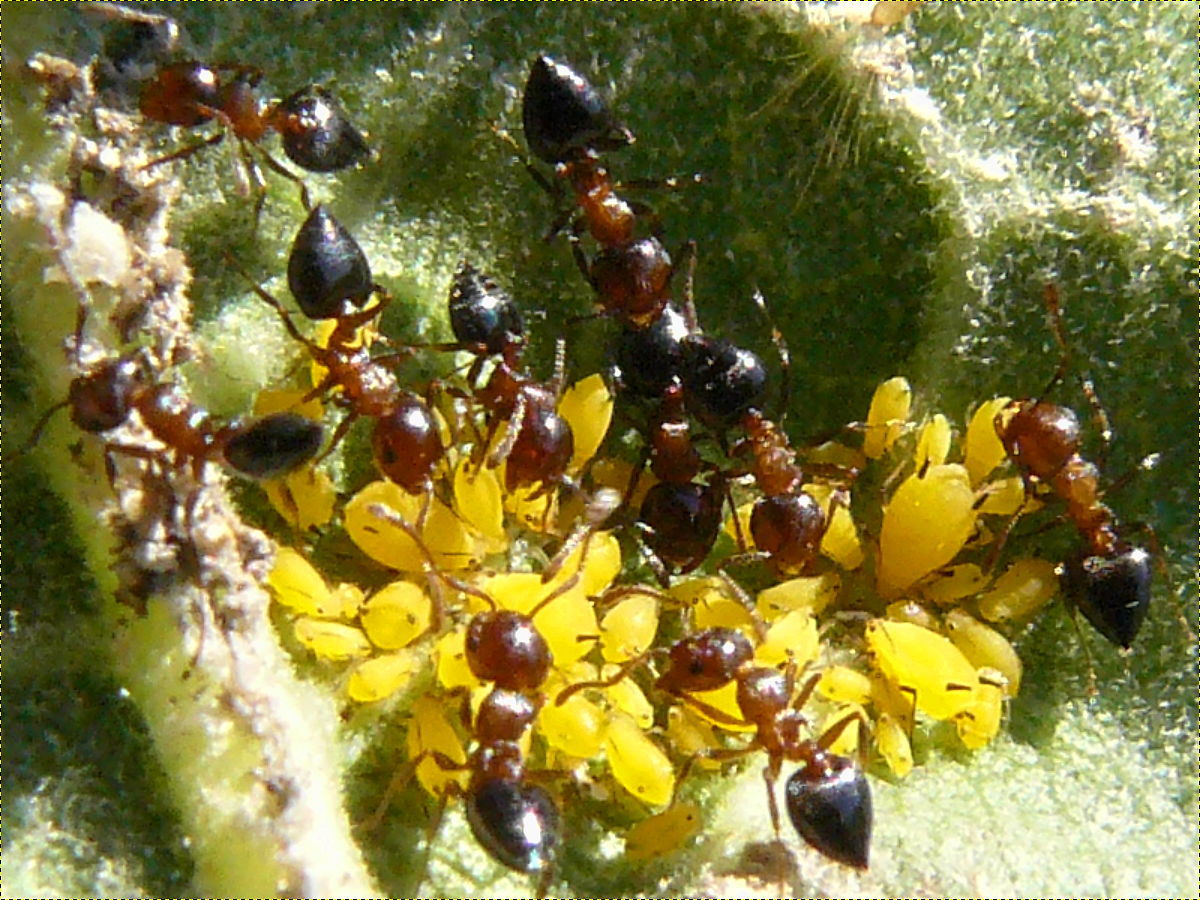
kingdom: Animalia
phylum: Arthropoda
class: Insecta
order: Hemiptera
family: Aphididae
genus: Aphis
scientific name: Aphis nerii
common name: Oleander aphid
